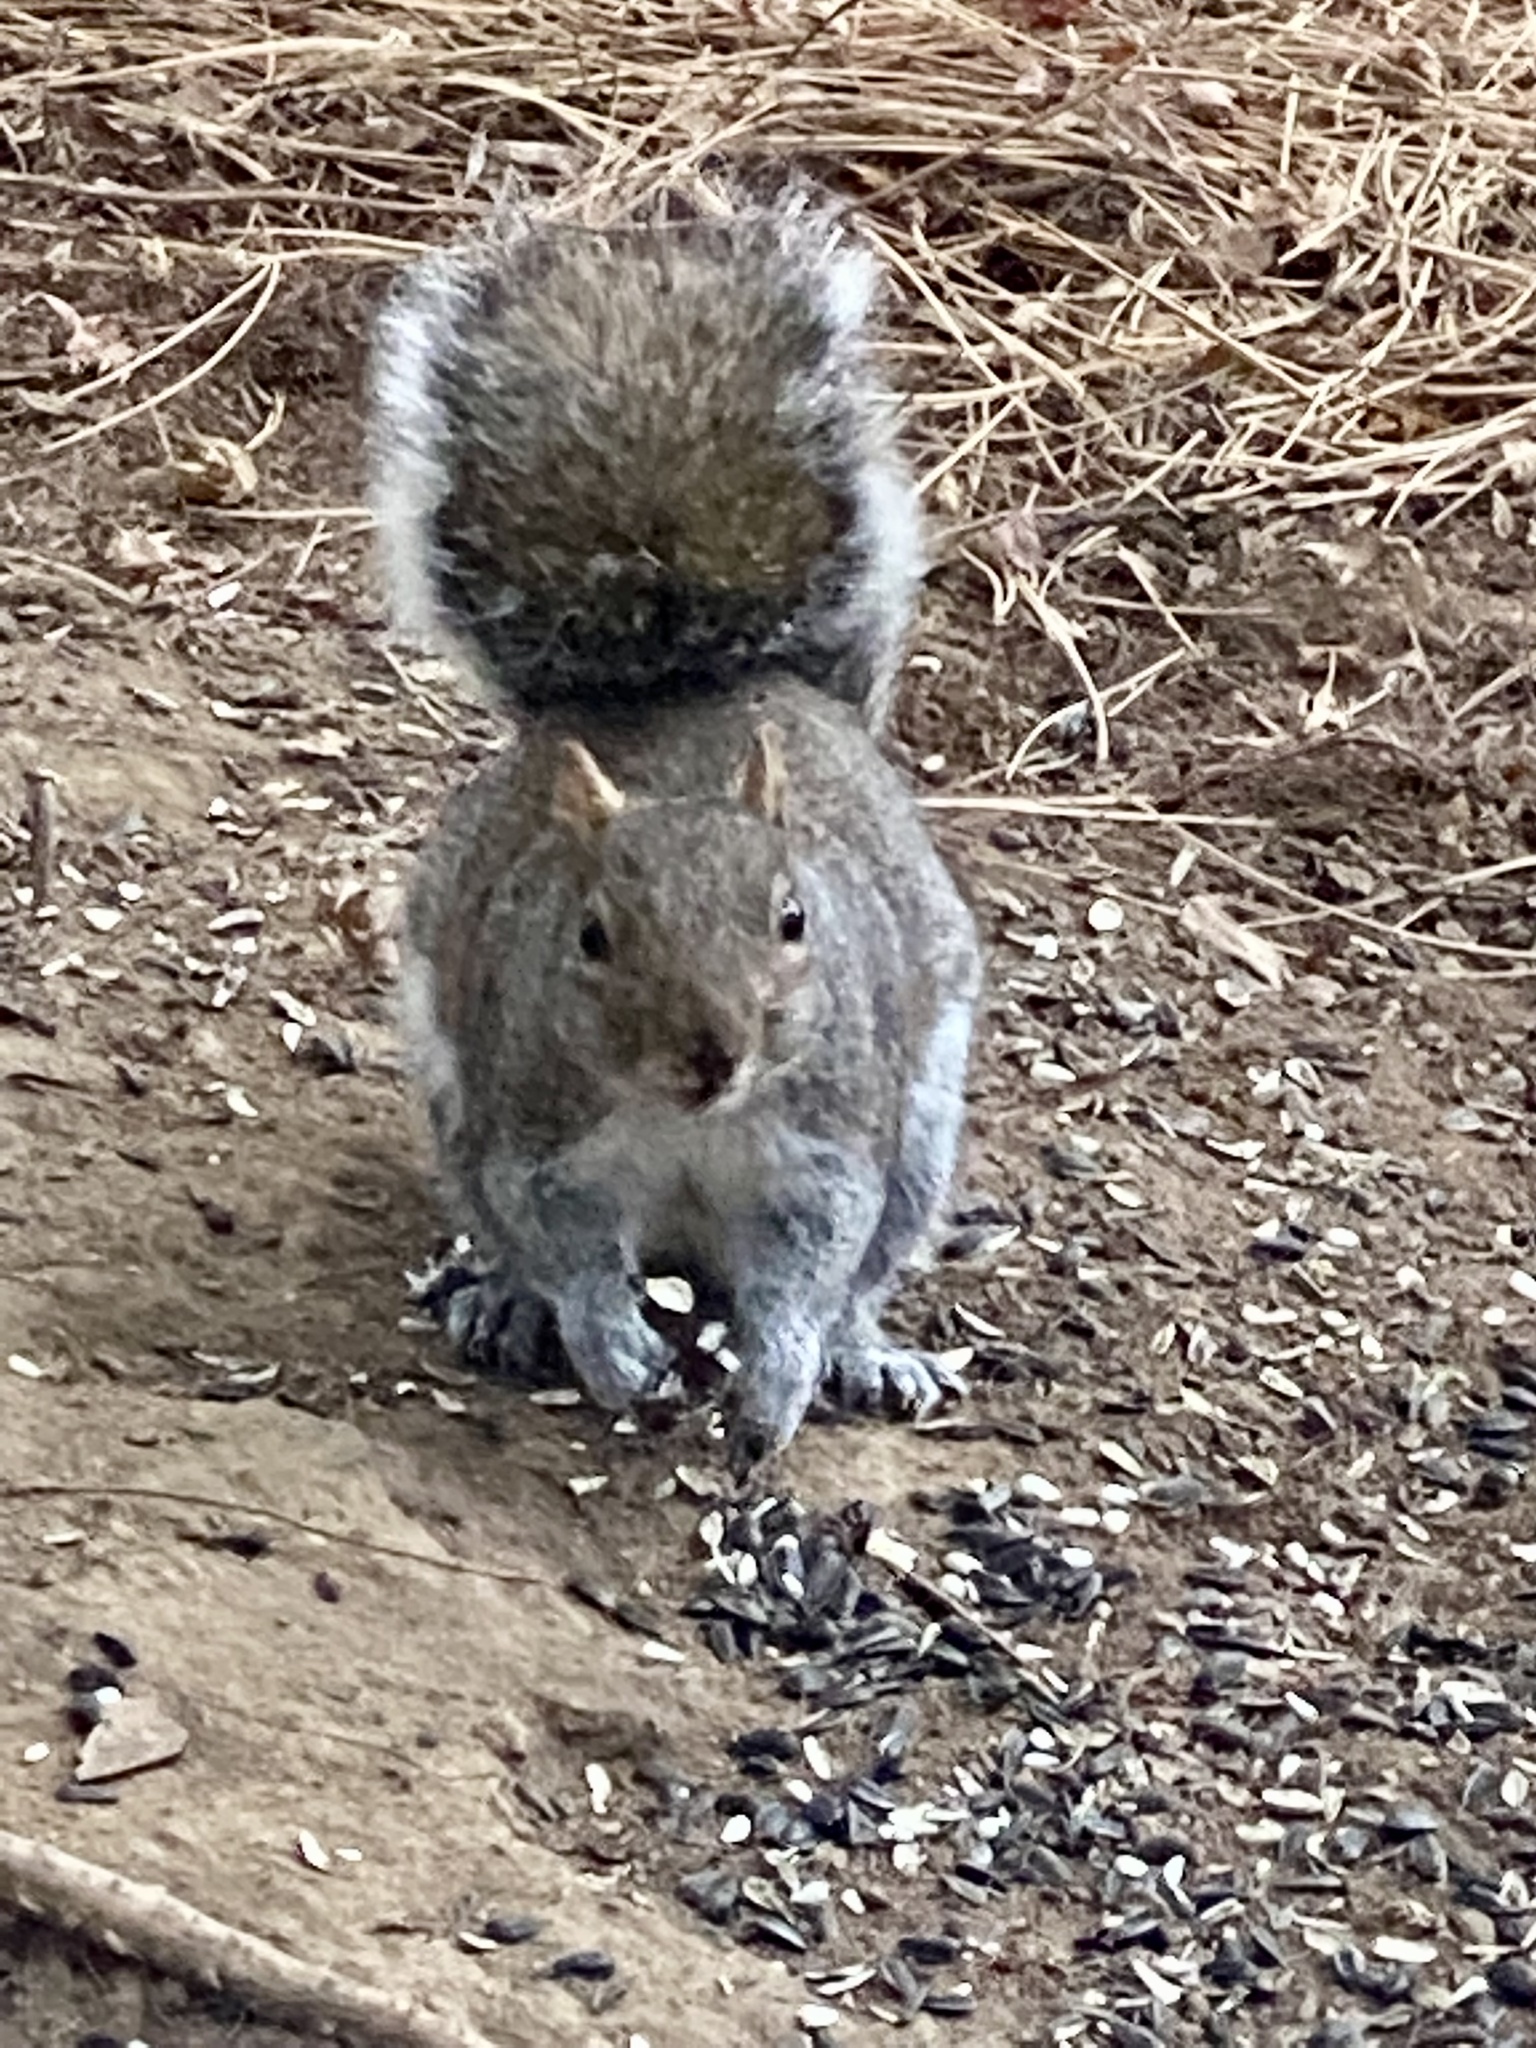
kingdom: Animalia
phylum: Chordata
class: Mammalia
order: Rodentia
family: Sciuridae
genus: Sciurus
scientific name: Sciurus carolinensis
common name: Eastern gray squirrel
